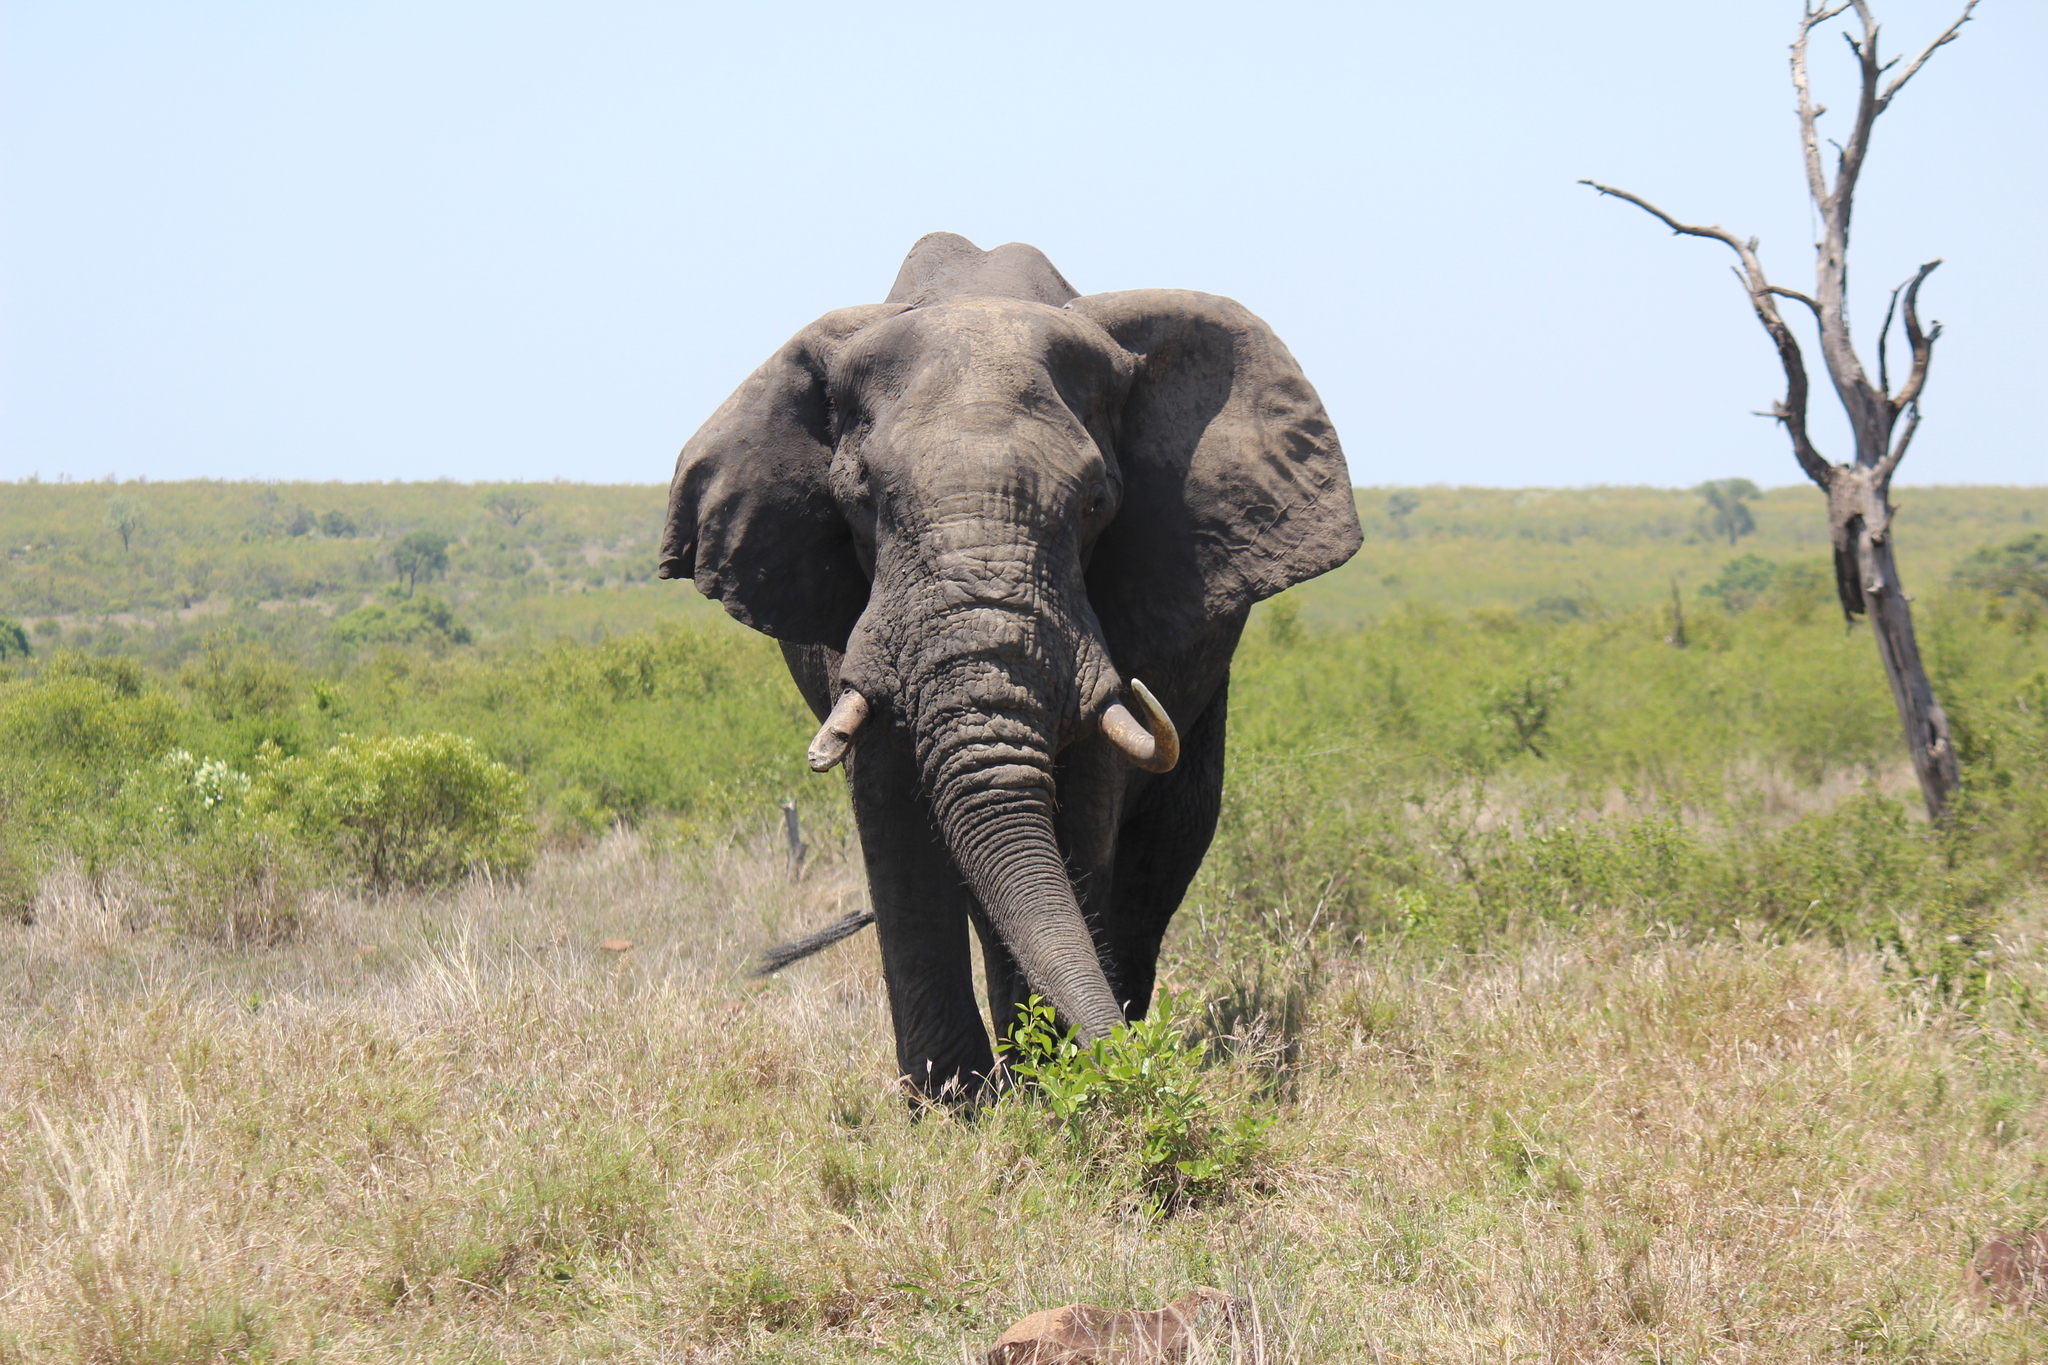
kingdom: Animalia
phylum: Chordata
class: Mammalia
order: Proboscidea
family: Elephantidae
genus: Loxodonta
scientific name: Loxodonta africana
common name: African elephant
